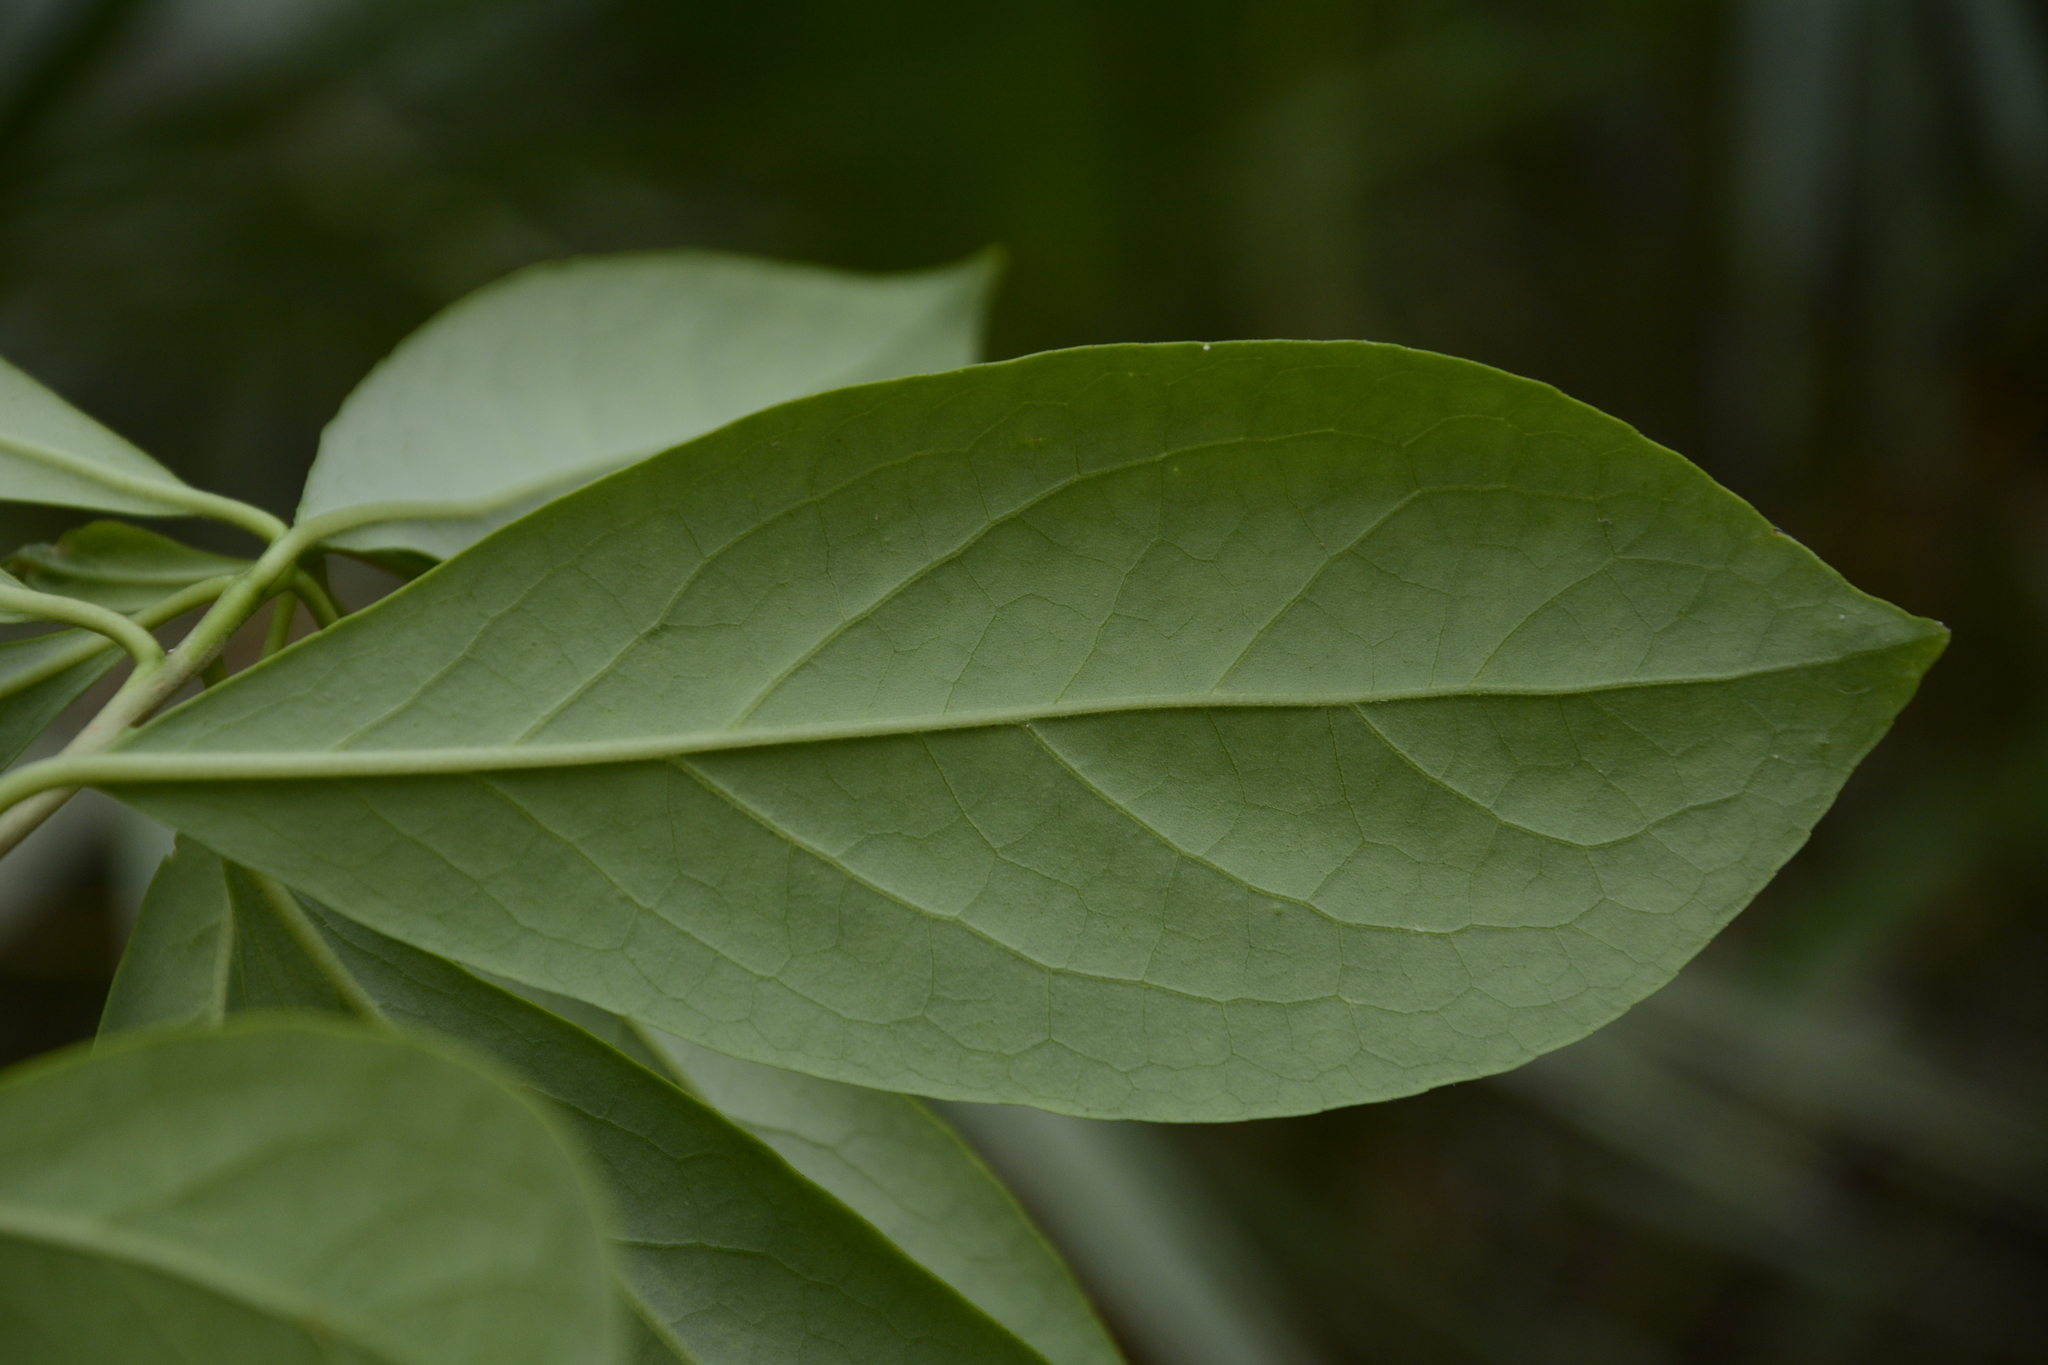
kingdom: Plantae
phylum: Tracheophyta
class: Magnoliopsida
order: Ericales
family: Symplocaceae
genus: Symplocos
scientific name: Symplocos tinctoria
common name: Horse-sugar
